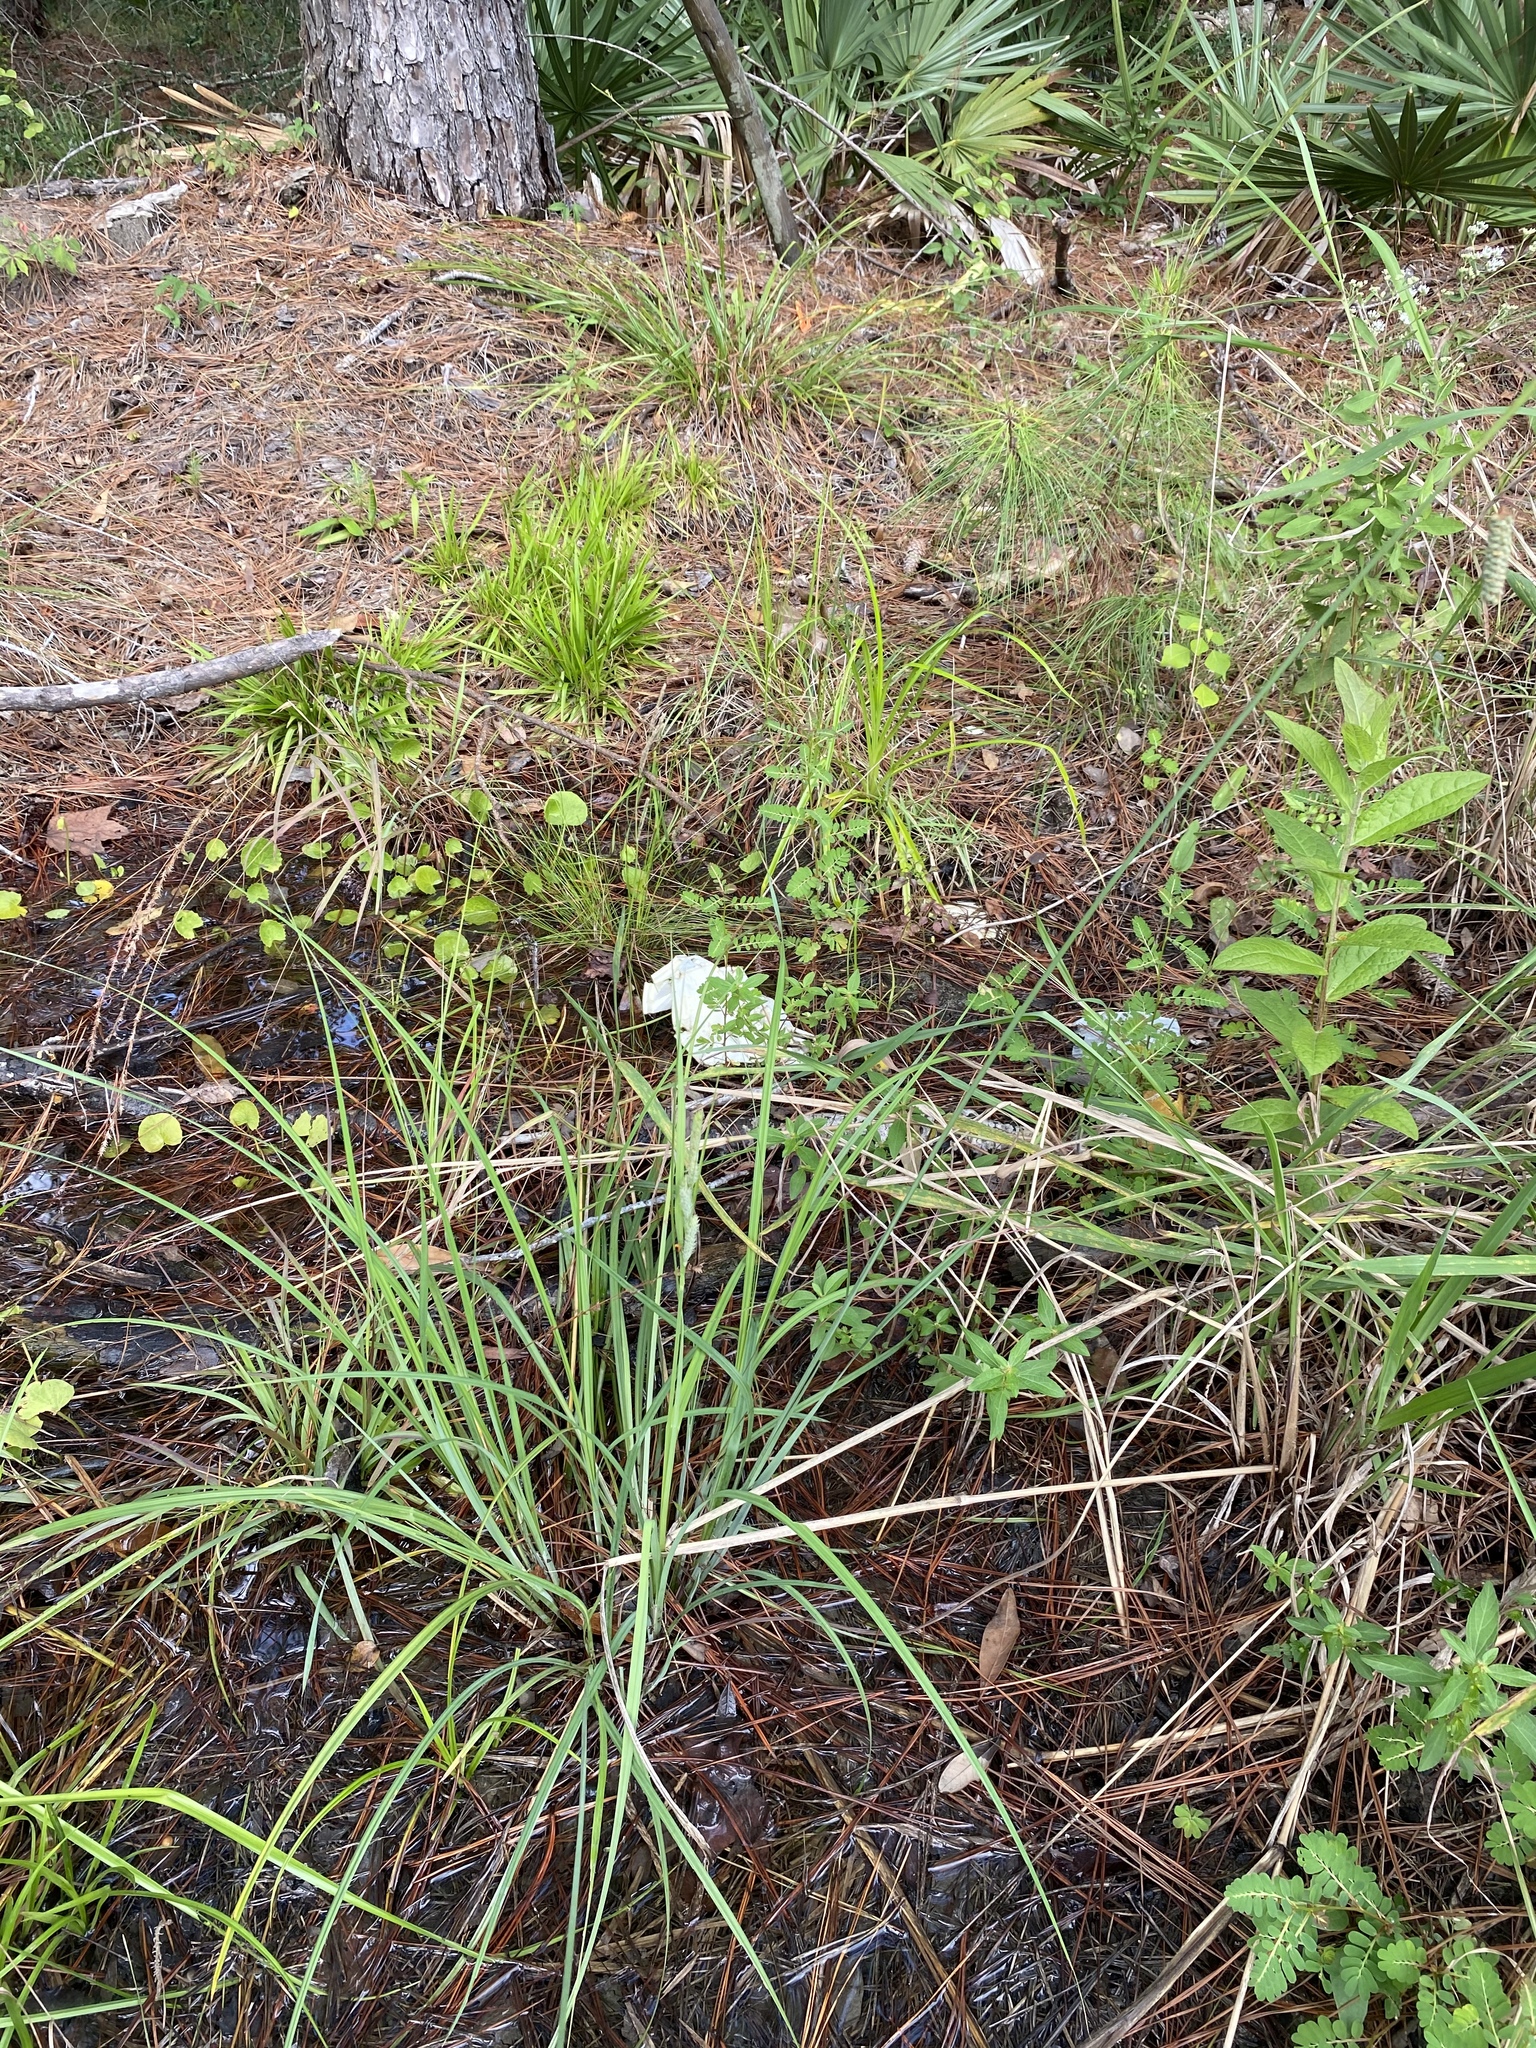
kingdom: Plantae
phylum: Tracheophyta
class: Liliopsida
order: Poales
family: Cyperaceae
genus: Carex
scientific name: Carex glaucescens
